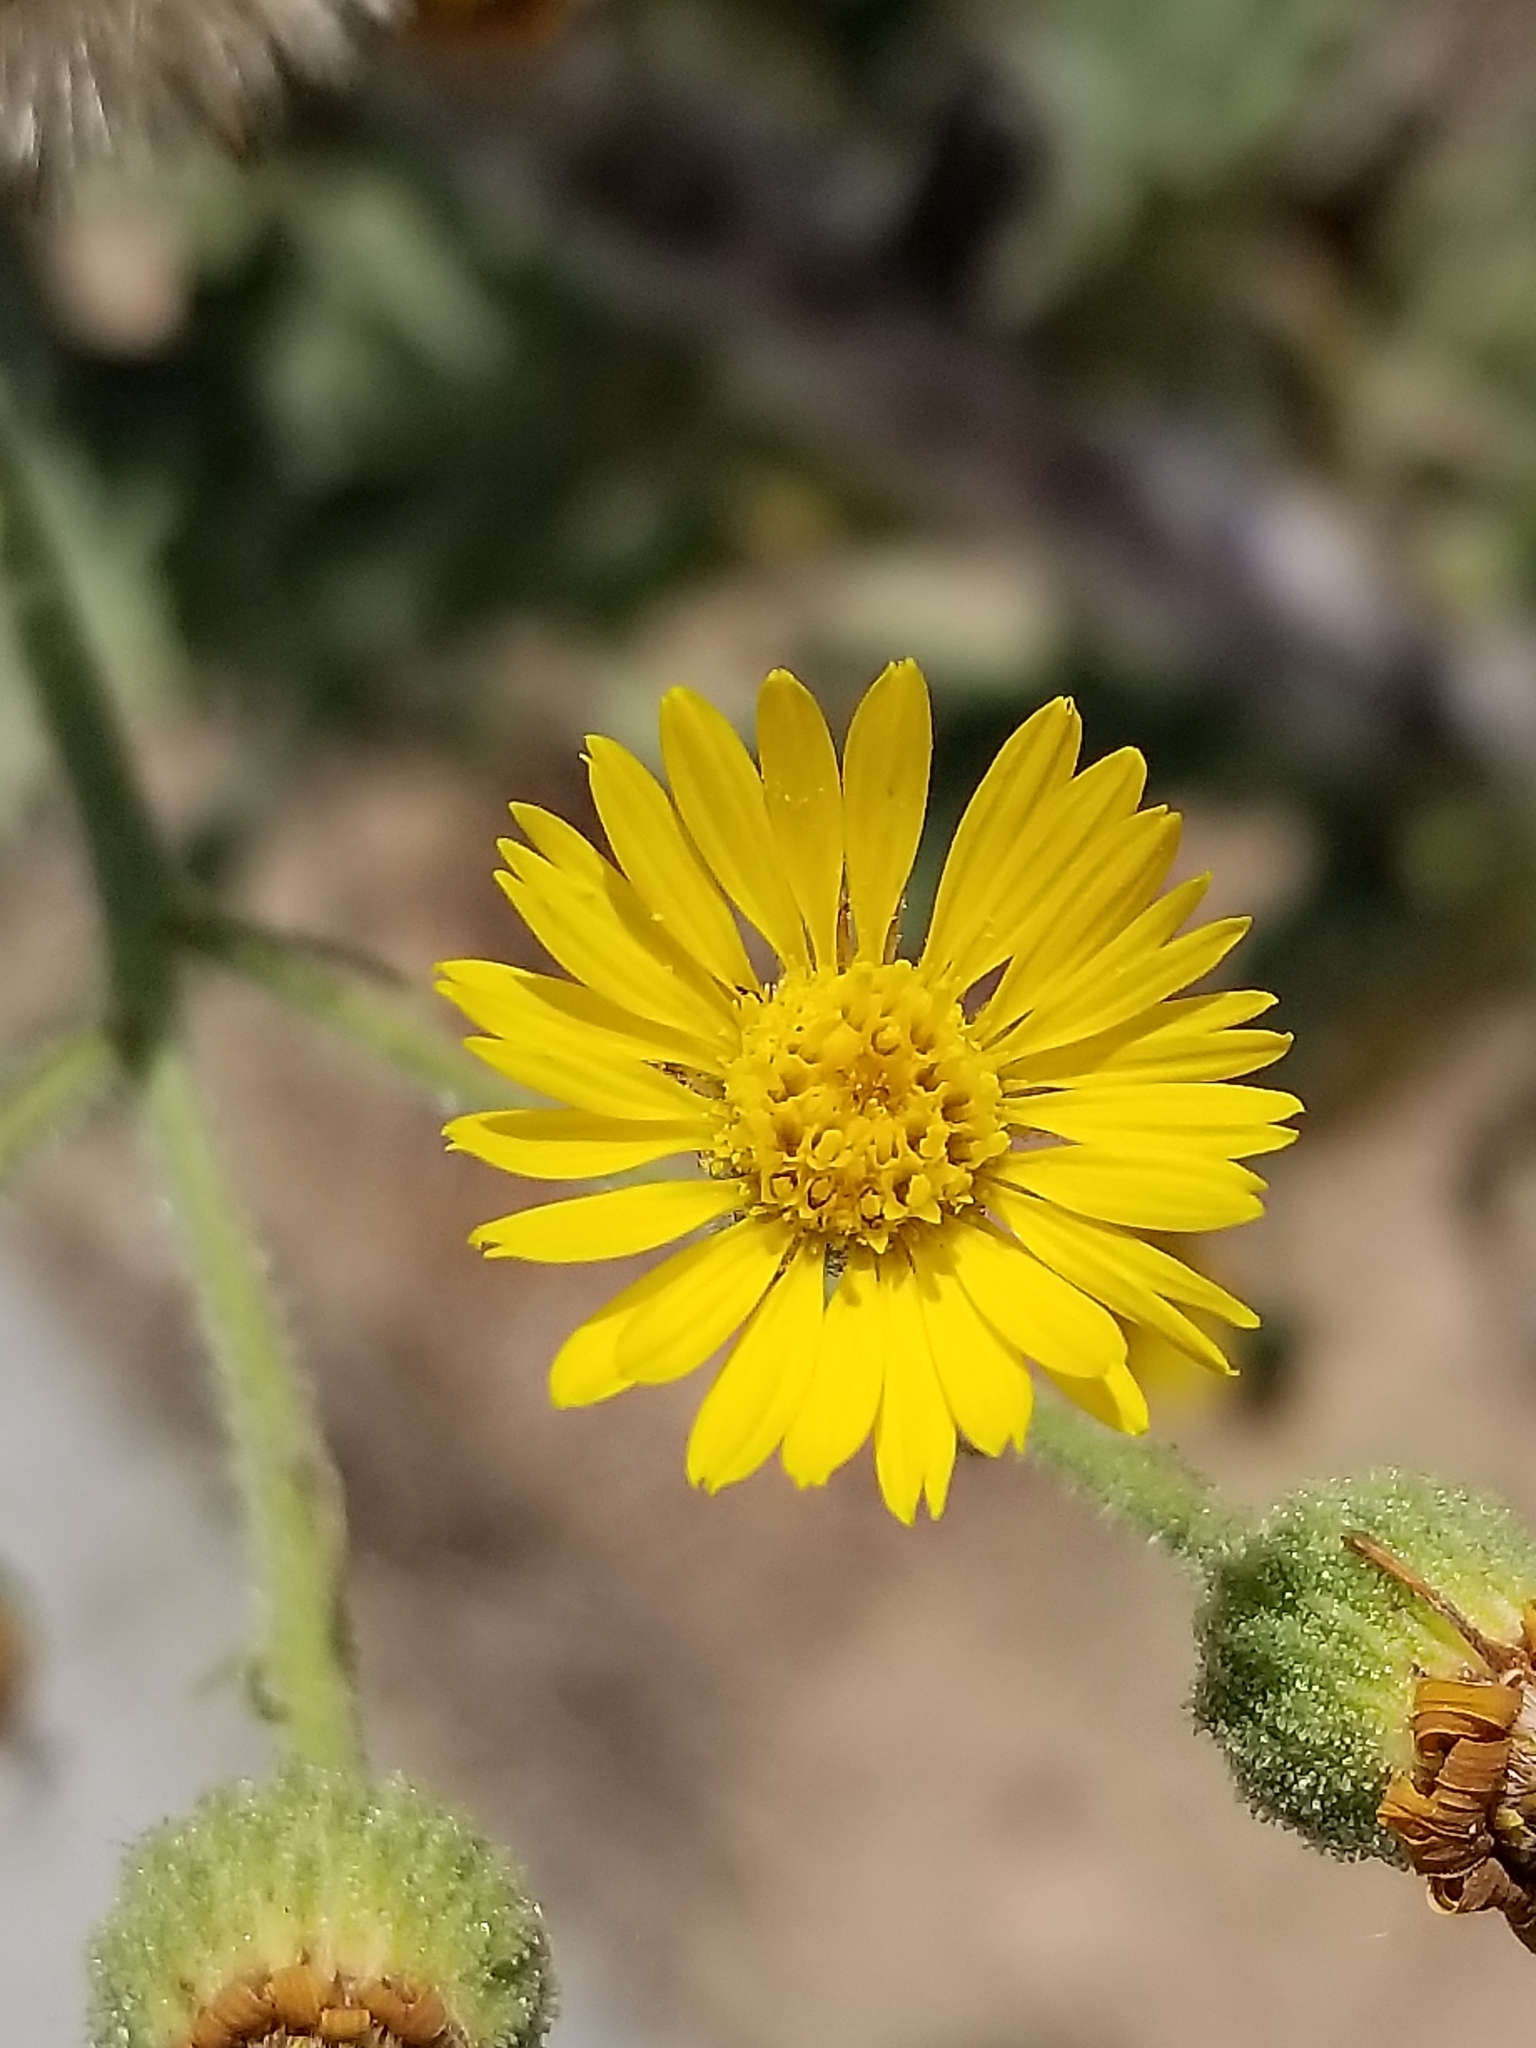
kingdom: Plantae
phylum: Tracheophyta
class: Magnoliopsida
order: Asterales
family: Asteraceae
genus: Heterotheca
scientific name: Heterotheca grandiflora
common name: Telegraphweed
